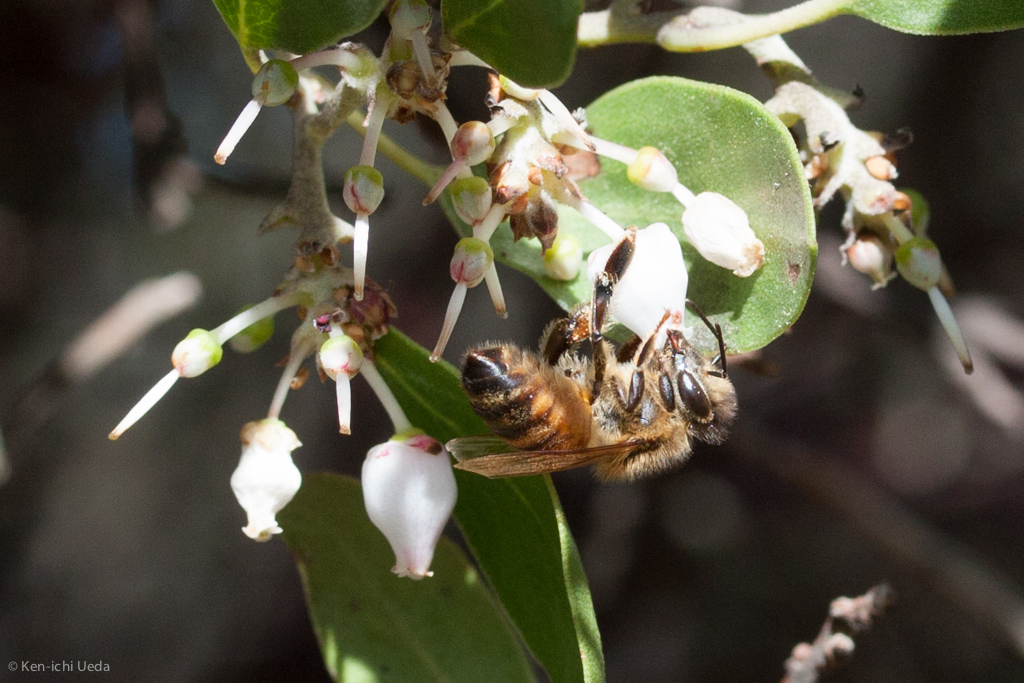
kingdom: Animalia
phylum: Arthropoda
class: Insecta
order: Hymenoptera
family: Apidae
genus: Apis
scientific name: Apis mellifera
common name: Honey bee
